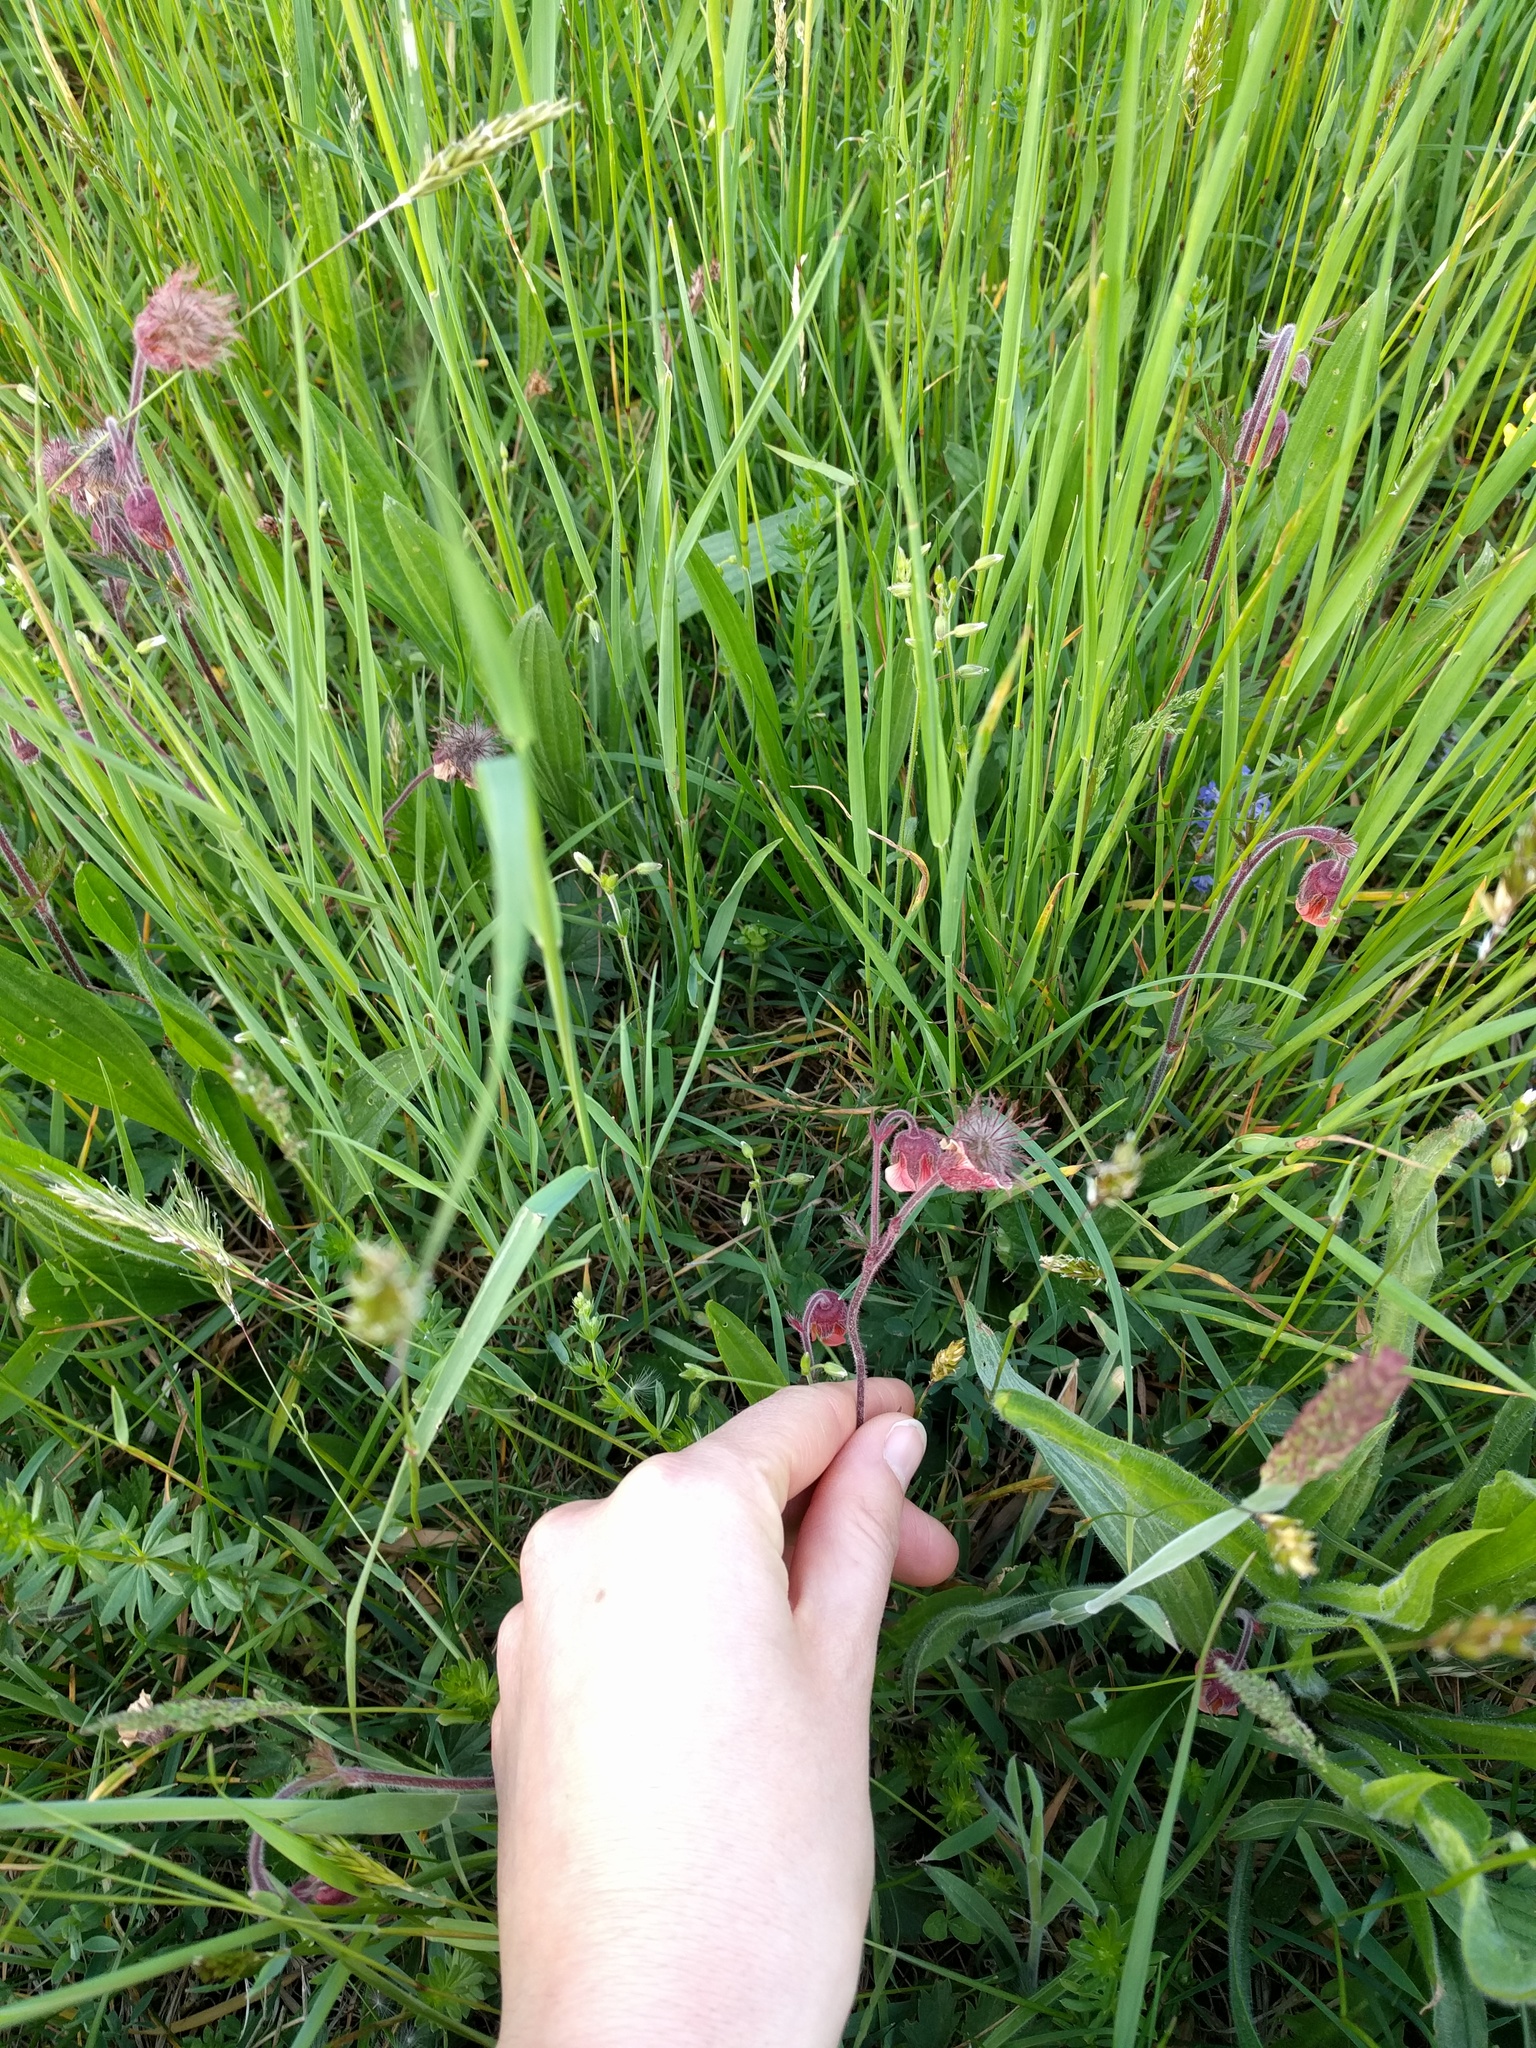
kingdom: Plantae
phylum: Tracheophyta
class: Magnoliopsida
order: Rosales
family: Rosaceae
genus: Geum
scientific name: Geum rivale
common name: Water avens
